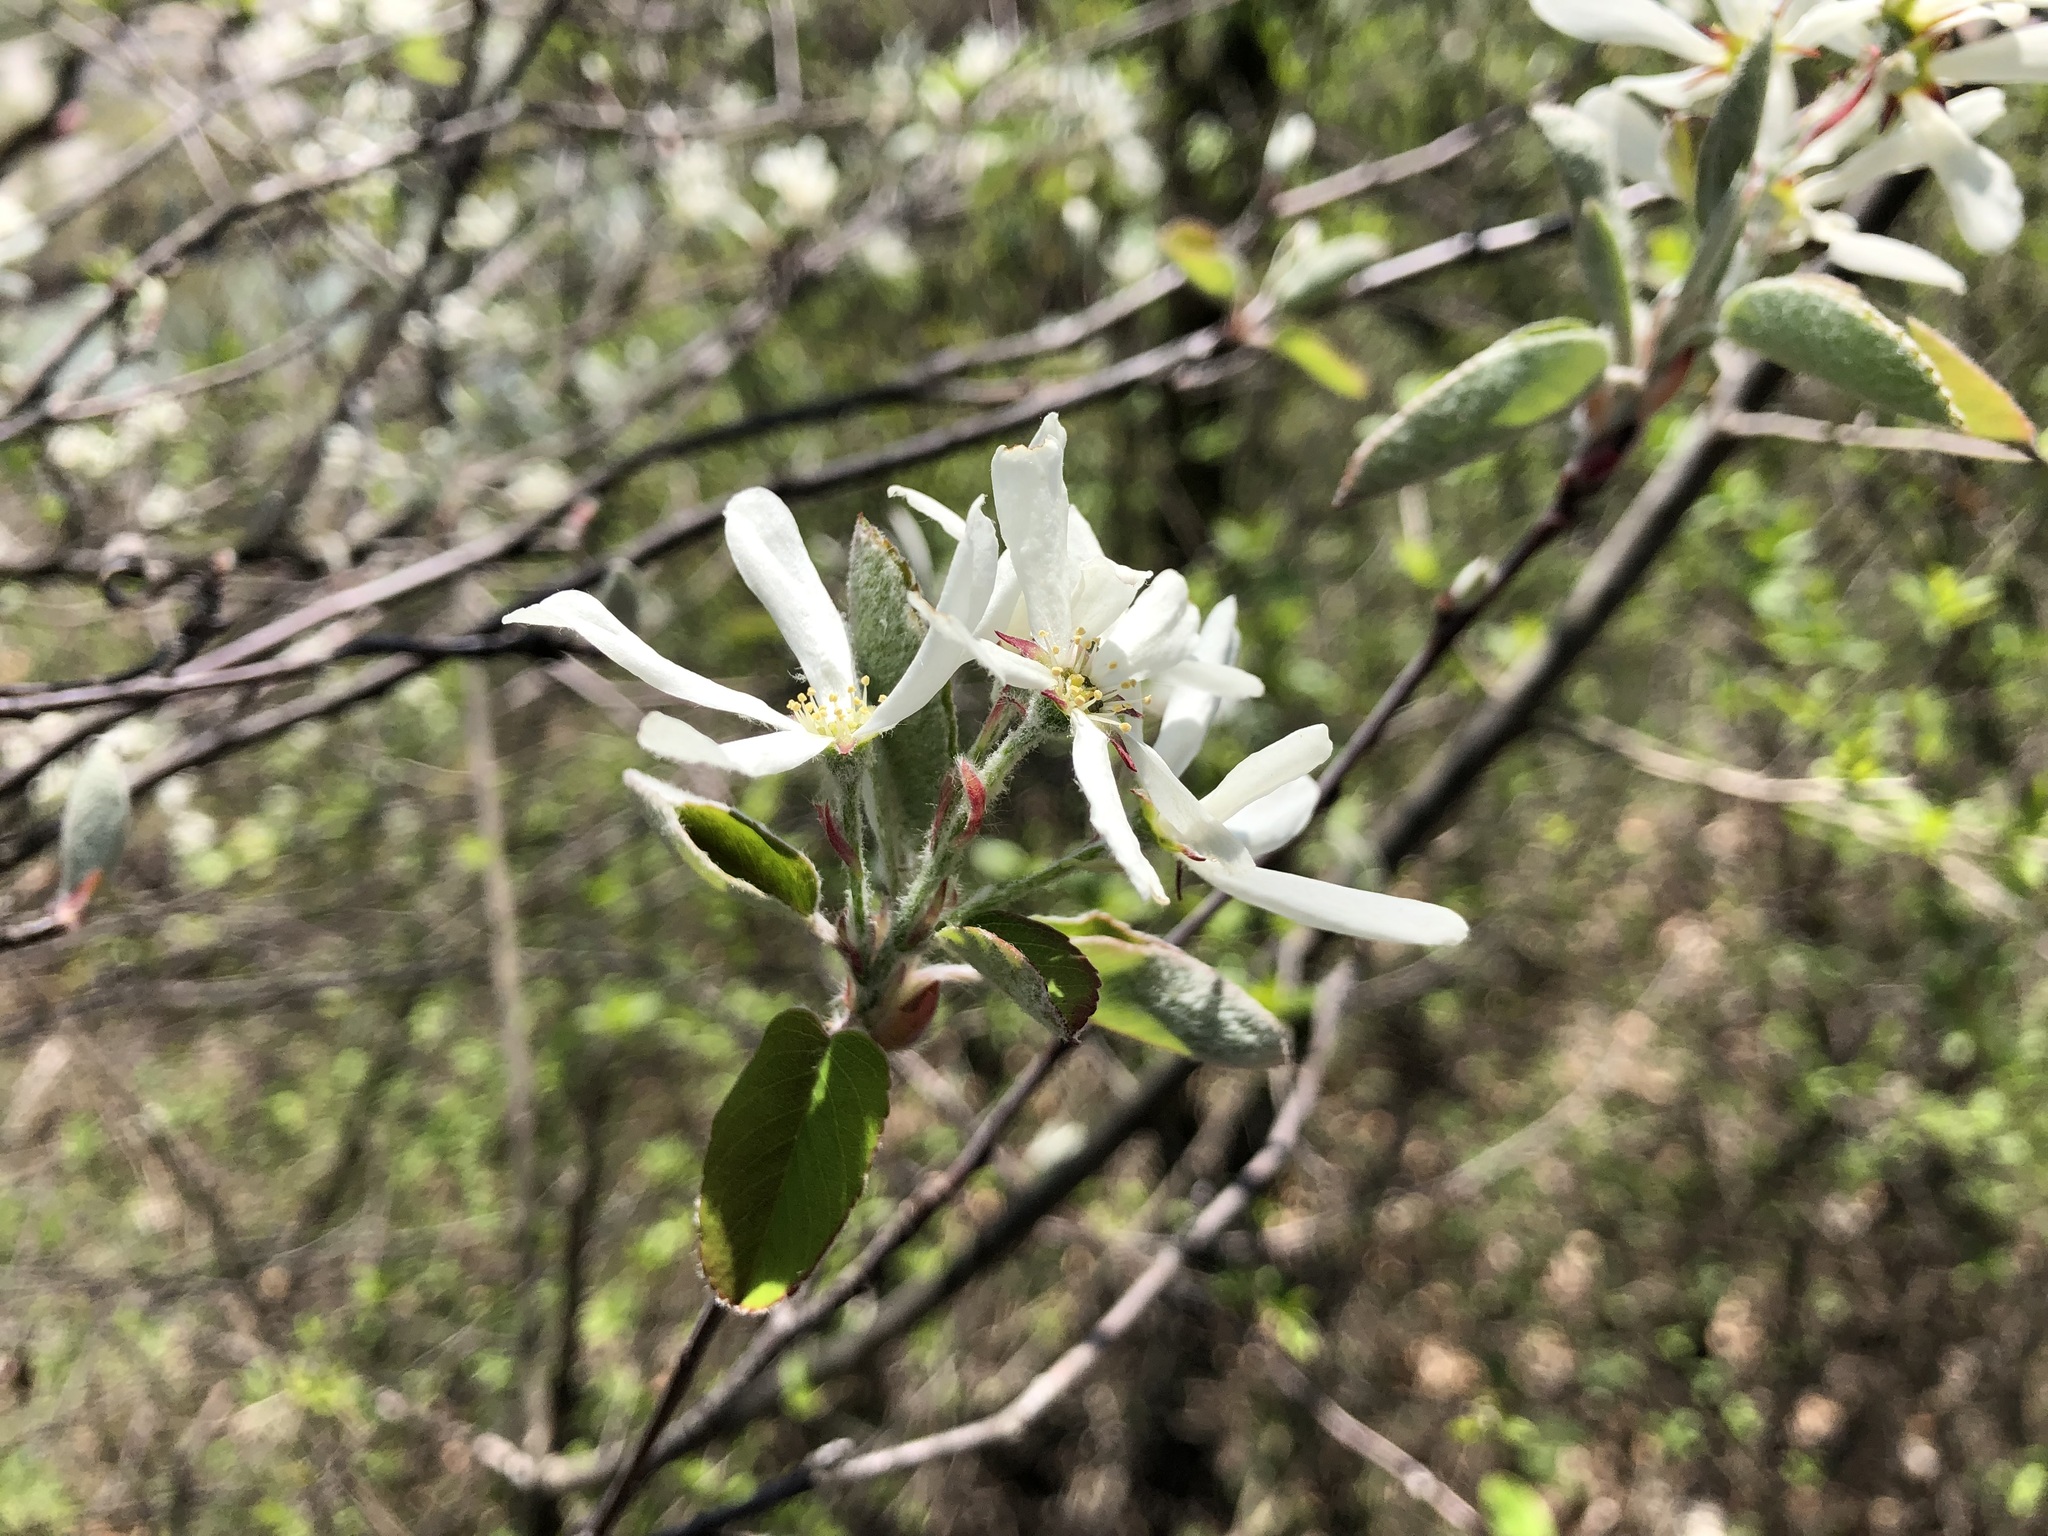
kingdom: Plantae
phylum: Tracheophyta
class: Magnoliopsida
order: Rosales
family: Rosaceae
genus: Amelanchier
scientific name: Amelanchier ovalis
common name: Serviceberry
